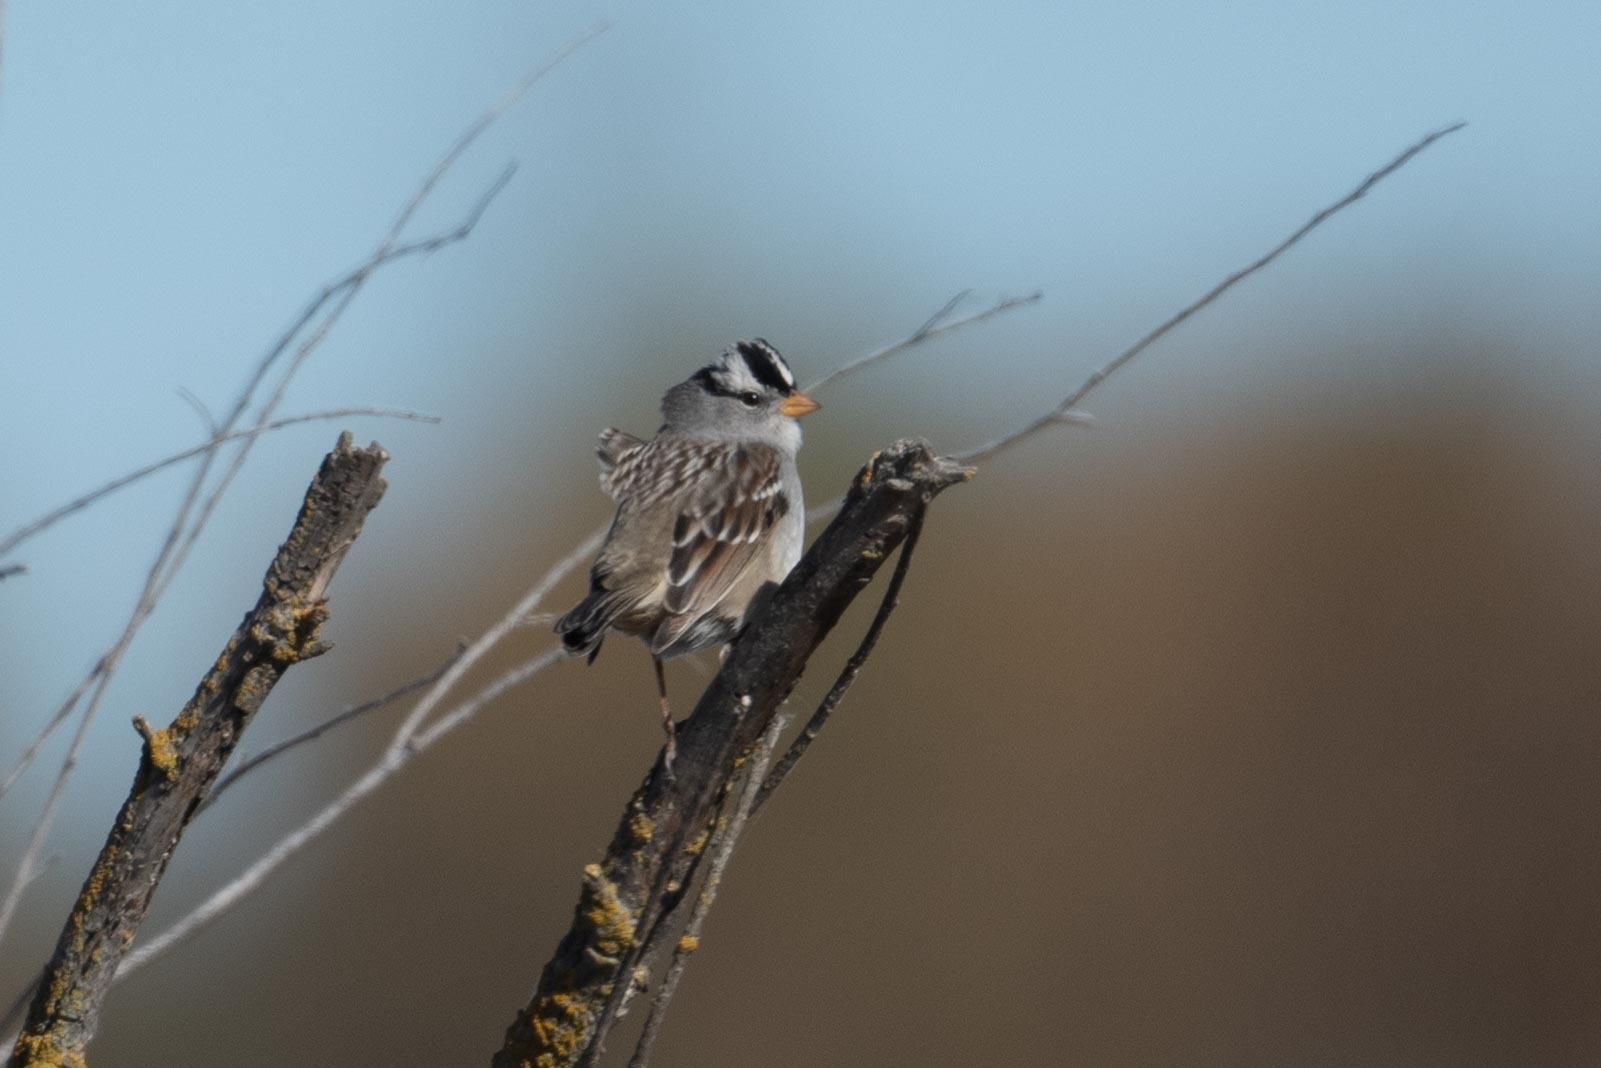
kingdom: Animalia
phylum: Chordata
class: Aves
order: Passeriformes
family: Passerellidae
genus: Zonotrichia
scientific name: Zonotrichia leucophrys
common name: White-crowned sparrow
